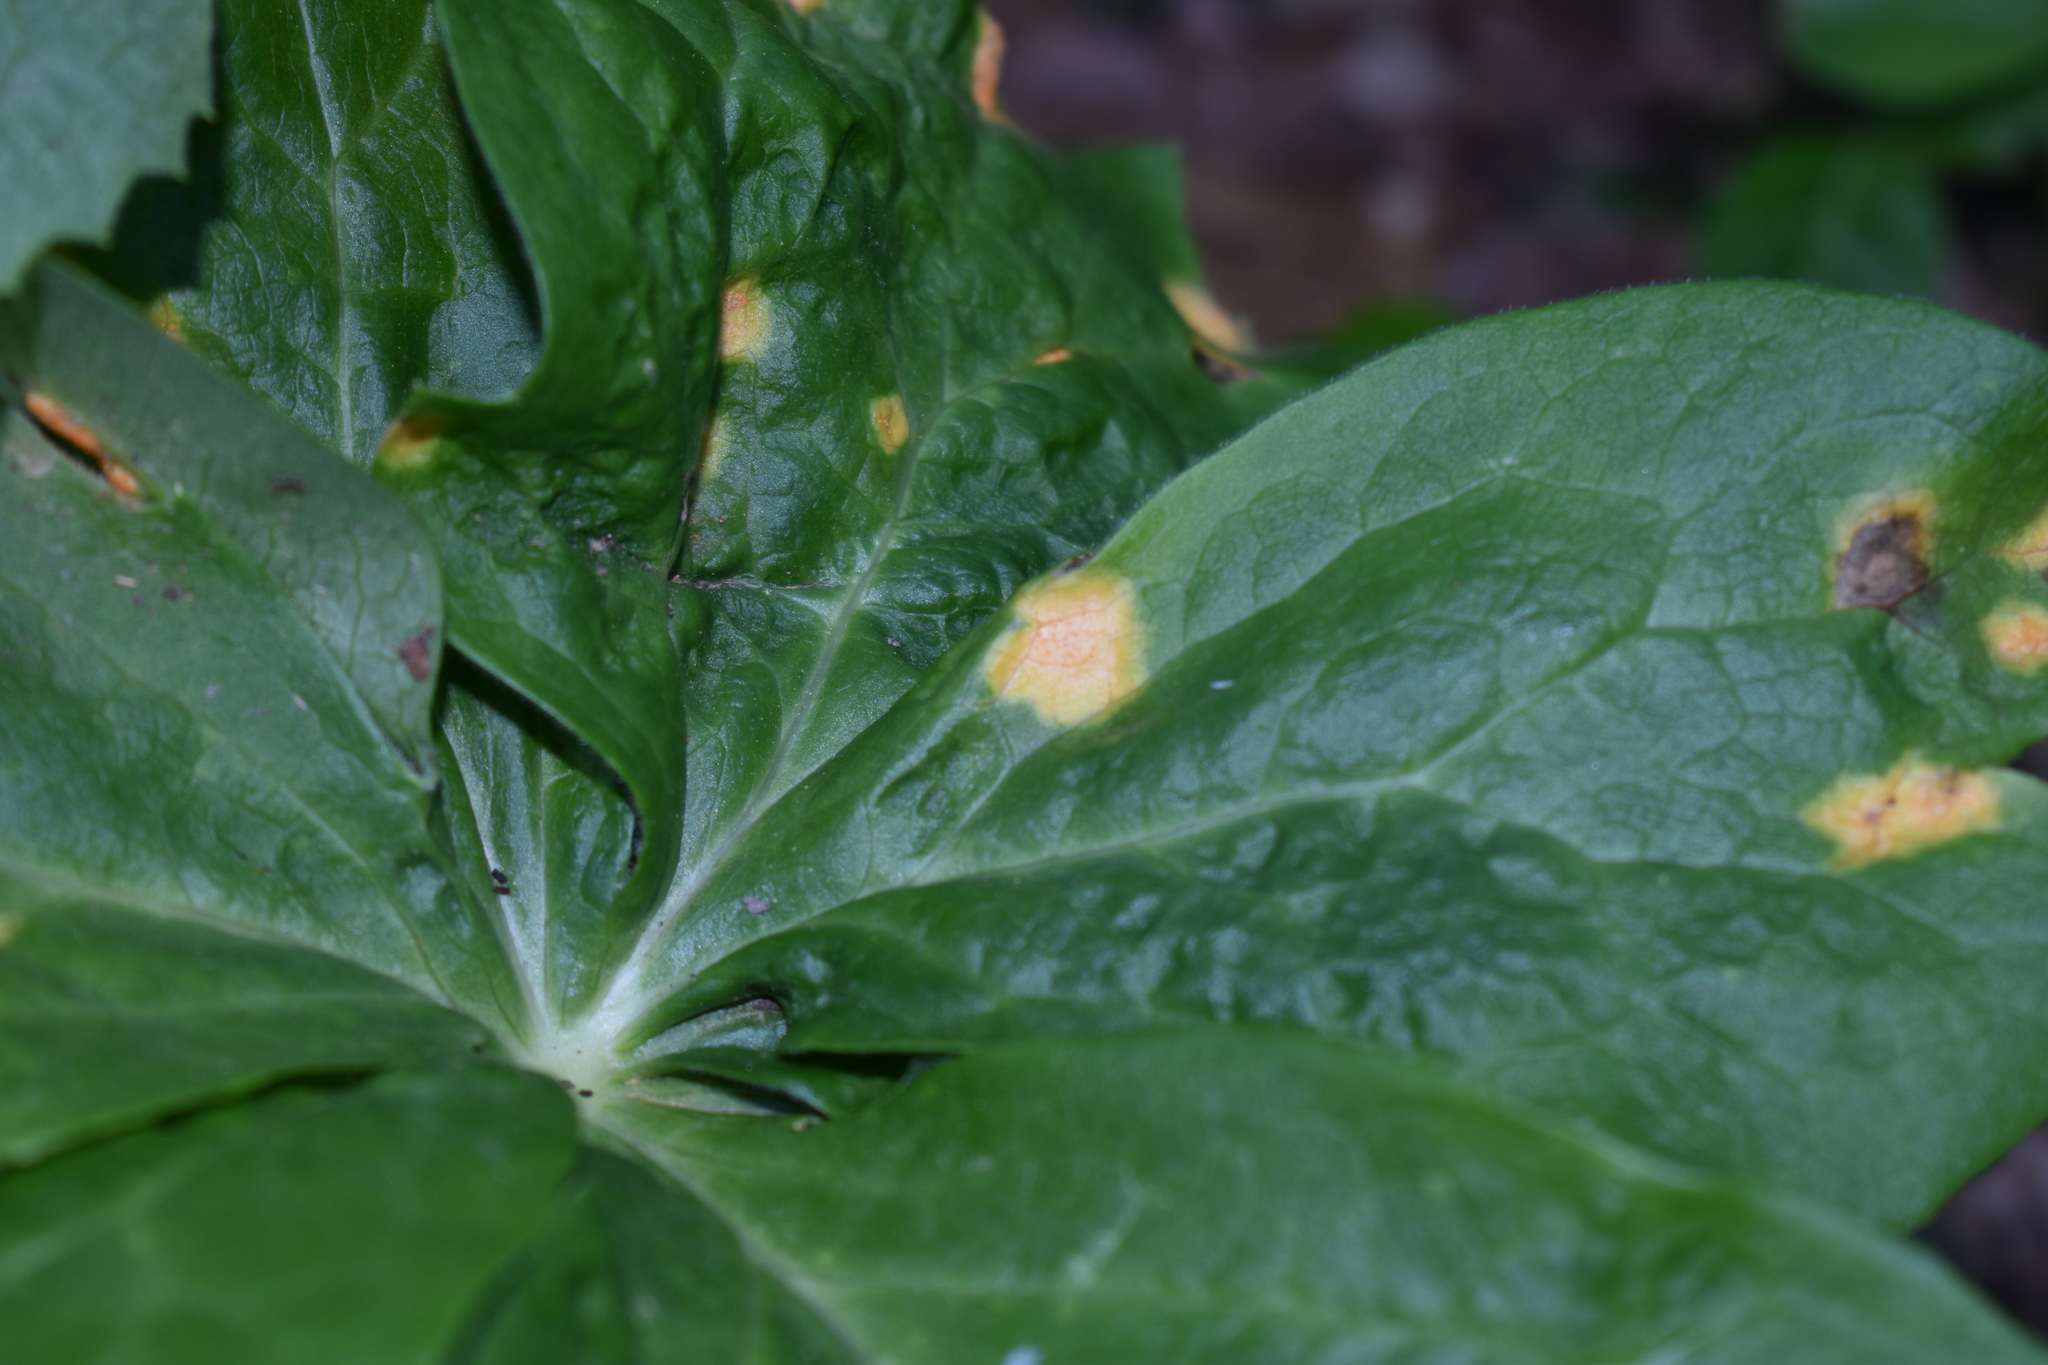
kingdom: Fungi
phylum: Basidiomycota
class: Pucciniomycetes
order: Pucciniales
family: Pucciniaceae
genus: Puccinia
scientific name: Puccinia podophylli
